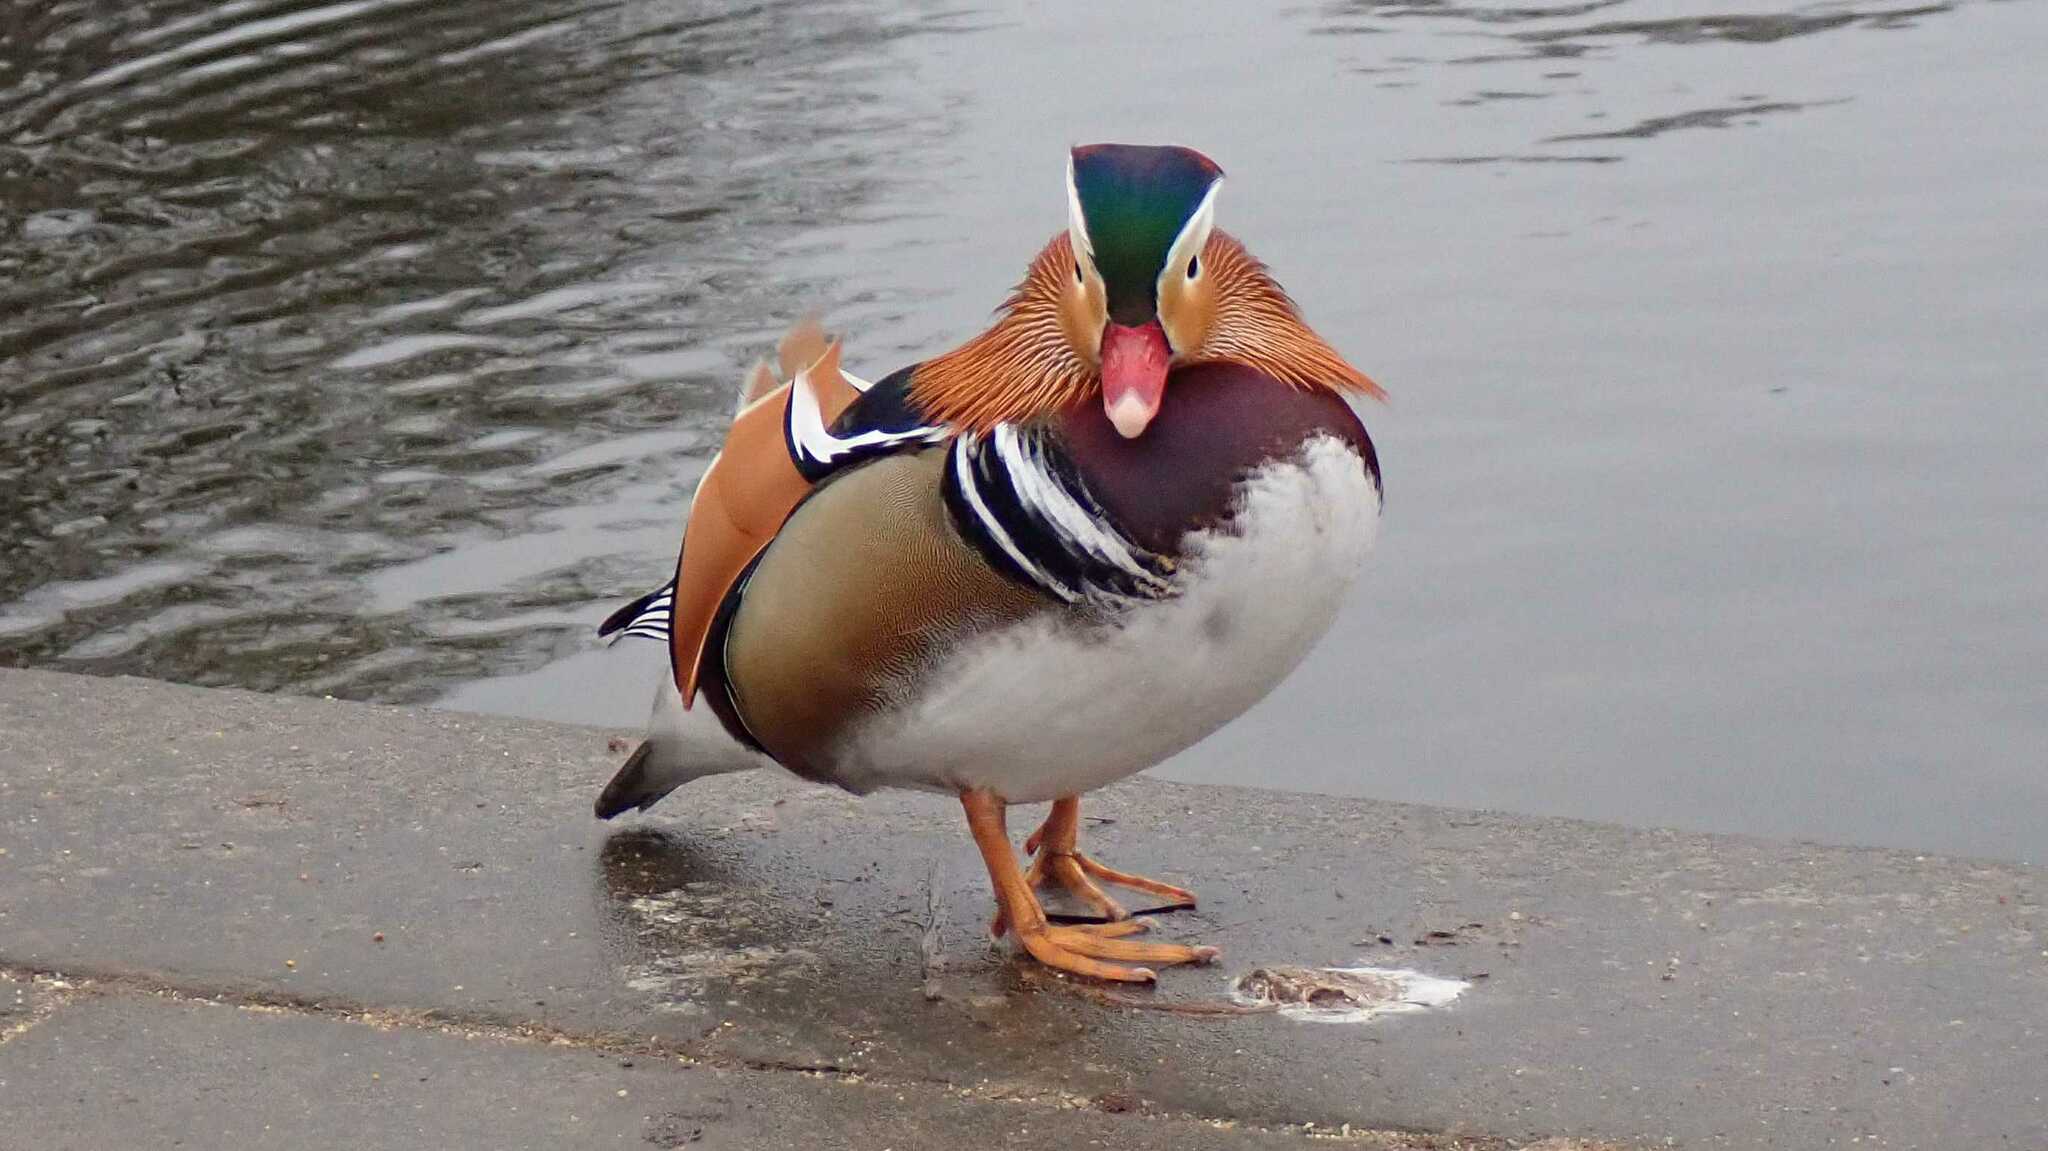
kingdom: Animalia
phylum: Chordata
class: Aves
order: Anseriformes
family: Anatidae
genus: Aix
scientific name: Aix galericulata
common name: Mandarin duck
